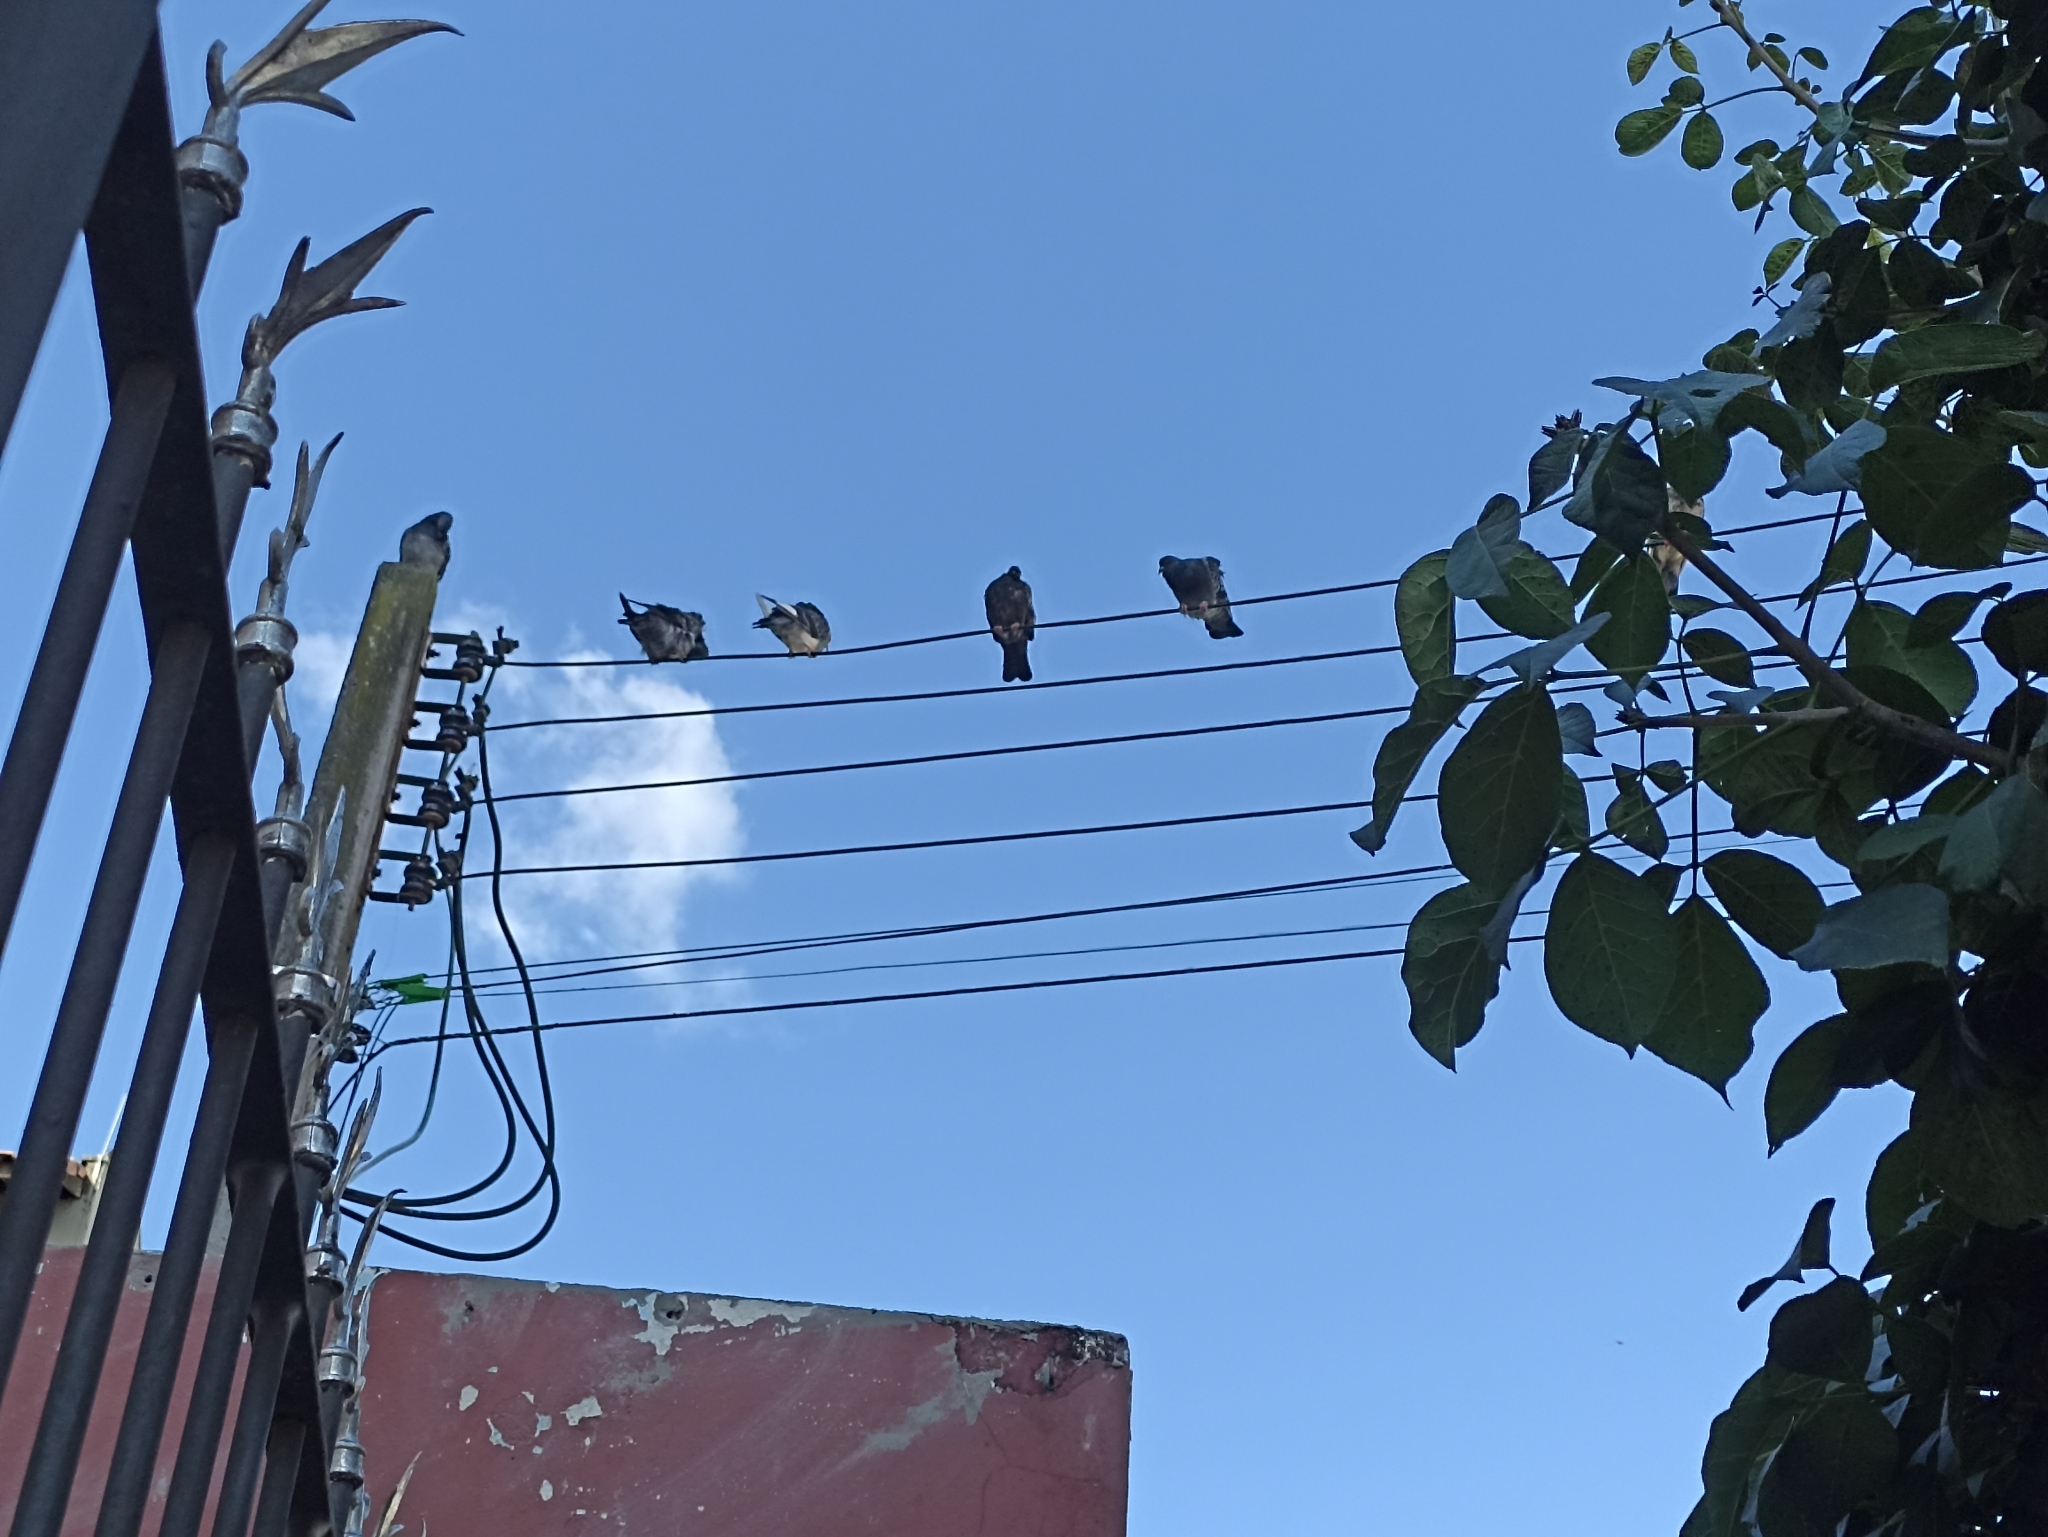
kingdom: Animalia
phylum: Chordata
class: Aves
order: Columbiformes
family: Columbidae
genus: Columba
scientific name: Columba livia
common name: Rock pigeon
